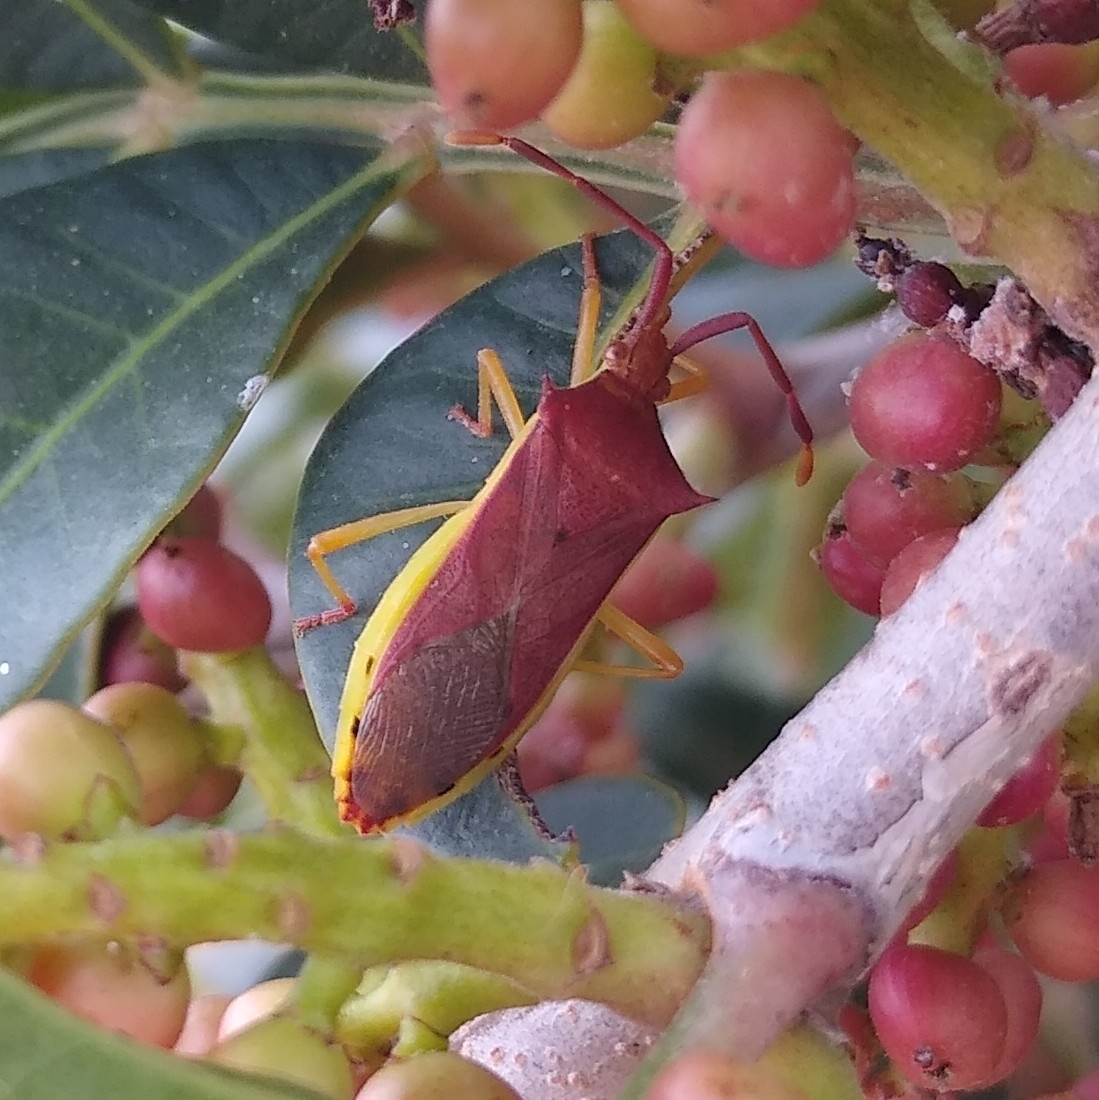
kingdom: Animalia
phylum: Arthropoda
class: Insecta
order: Hemiptera
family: Coreidae
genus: Plinachtus
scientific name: Plinachtus imitator
